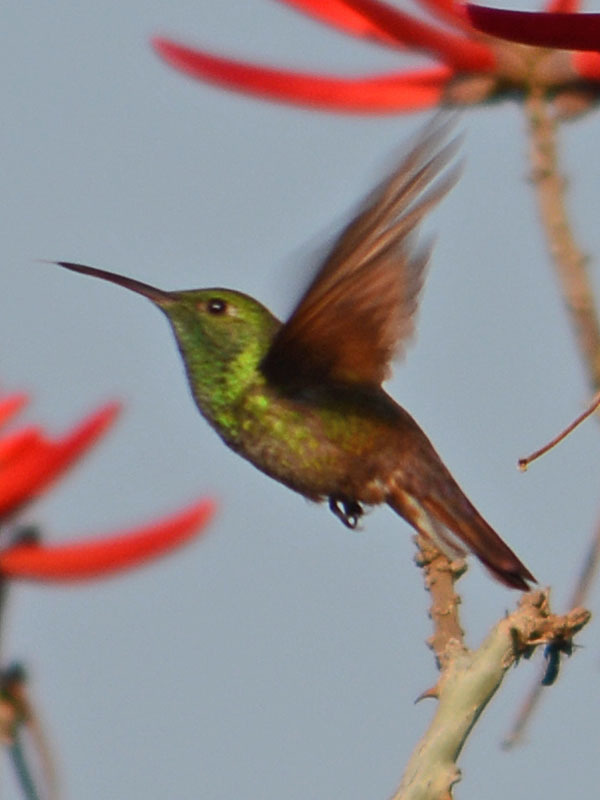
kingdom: Animalia
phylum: Chordata
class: Aves
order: Apodiformes
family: Trochilidae
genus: Saucerottia
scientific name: Saucerottia beryllina
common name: Berylline hummingbird
